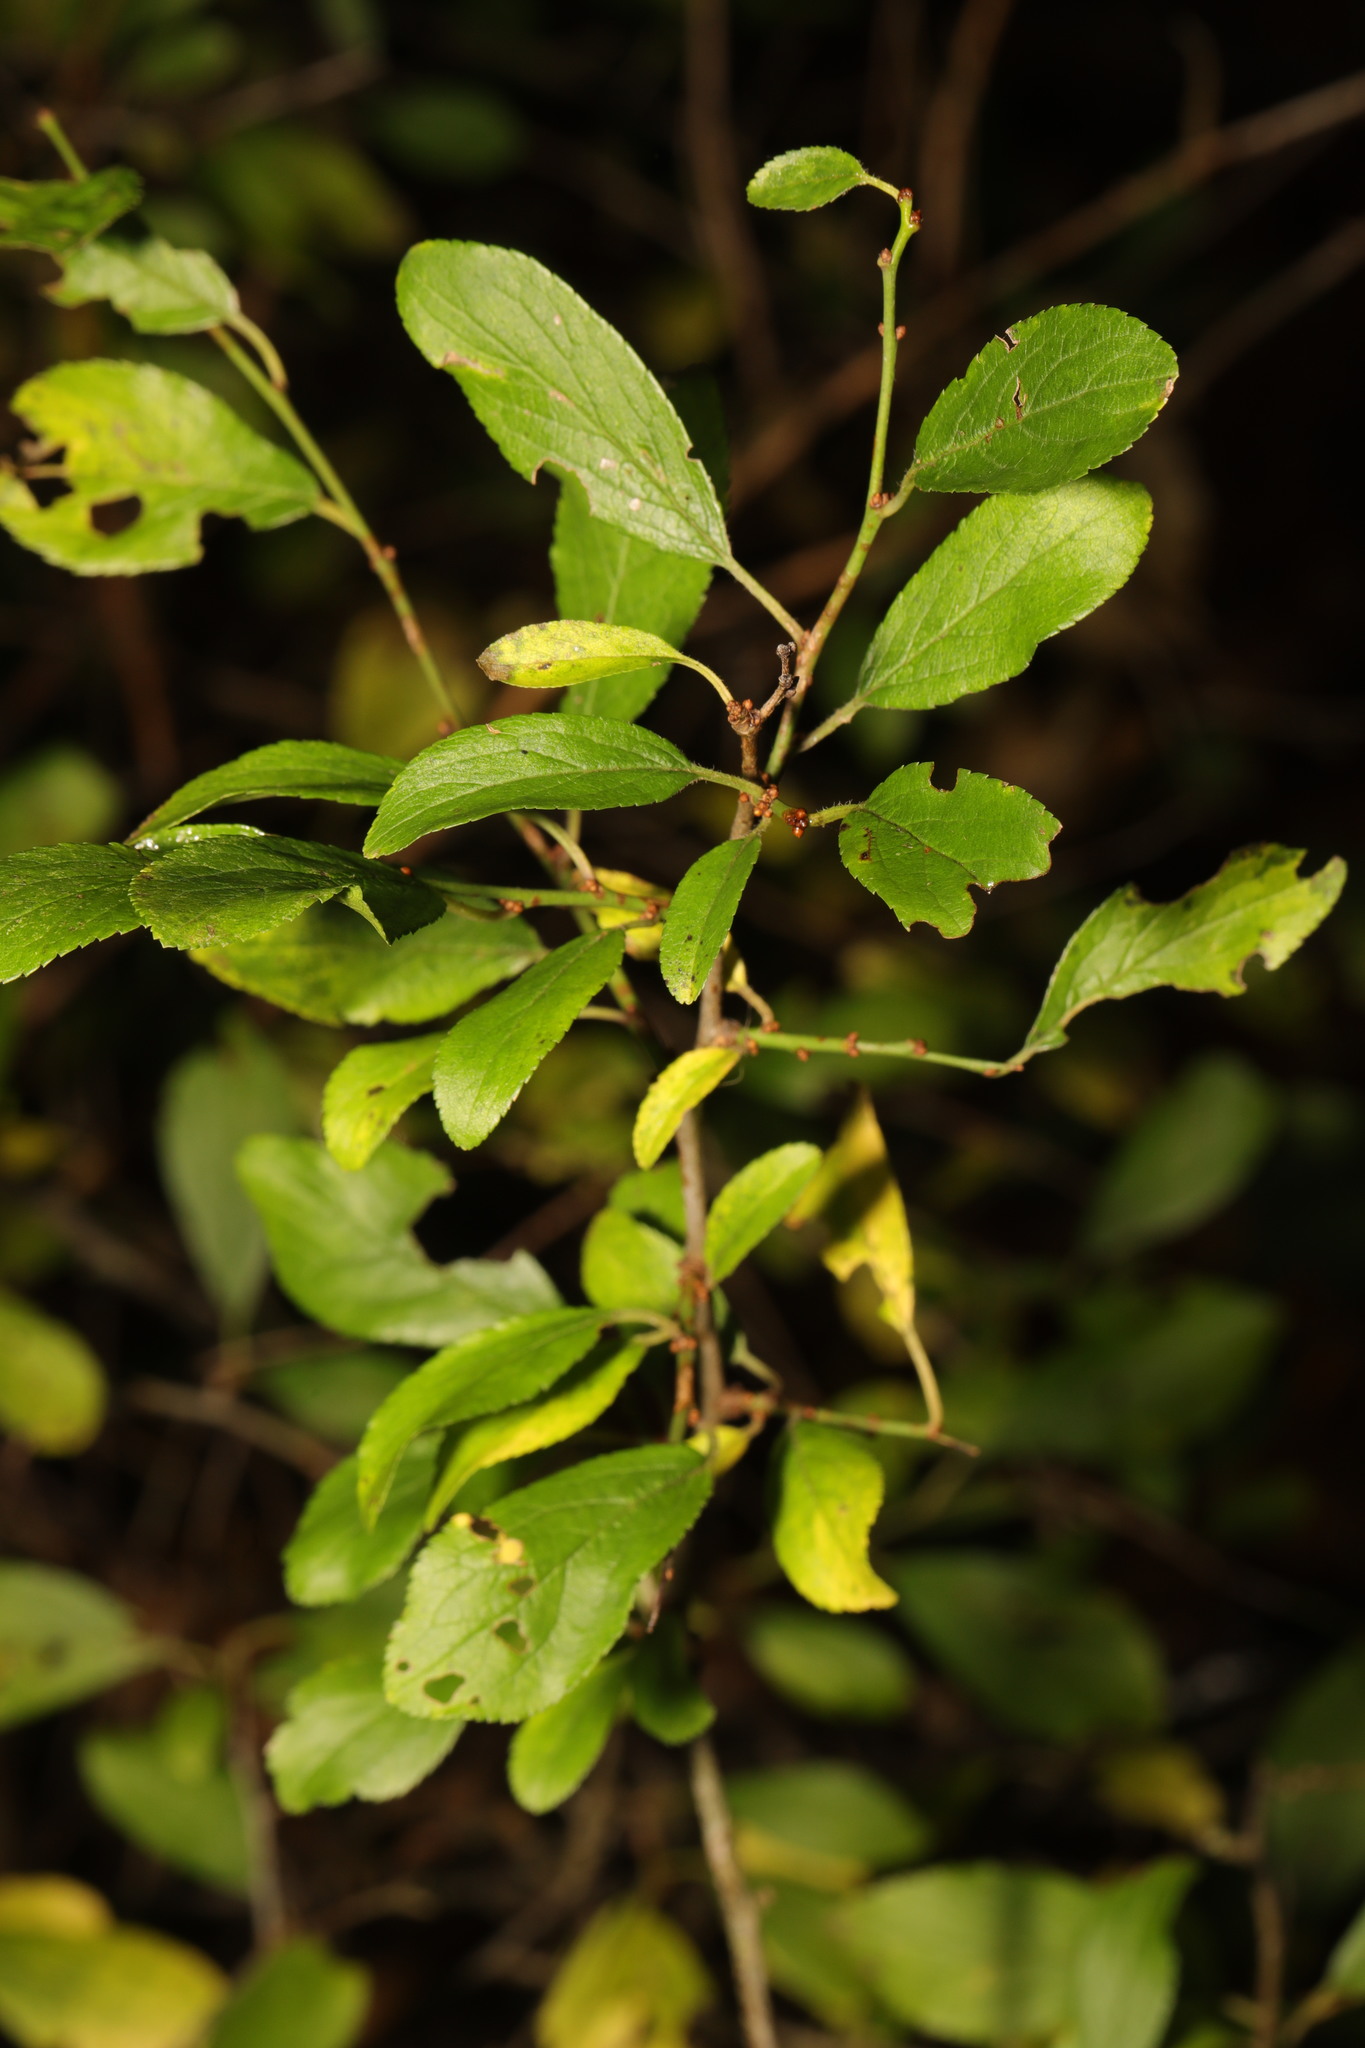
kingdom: Plantae
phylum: Tracheophyta
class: Magnoliopsida
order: Rosales
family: Rosaceae
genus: Prunus
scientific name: Prunus spinosa
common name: Blackthorn
